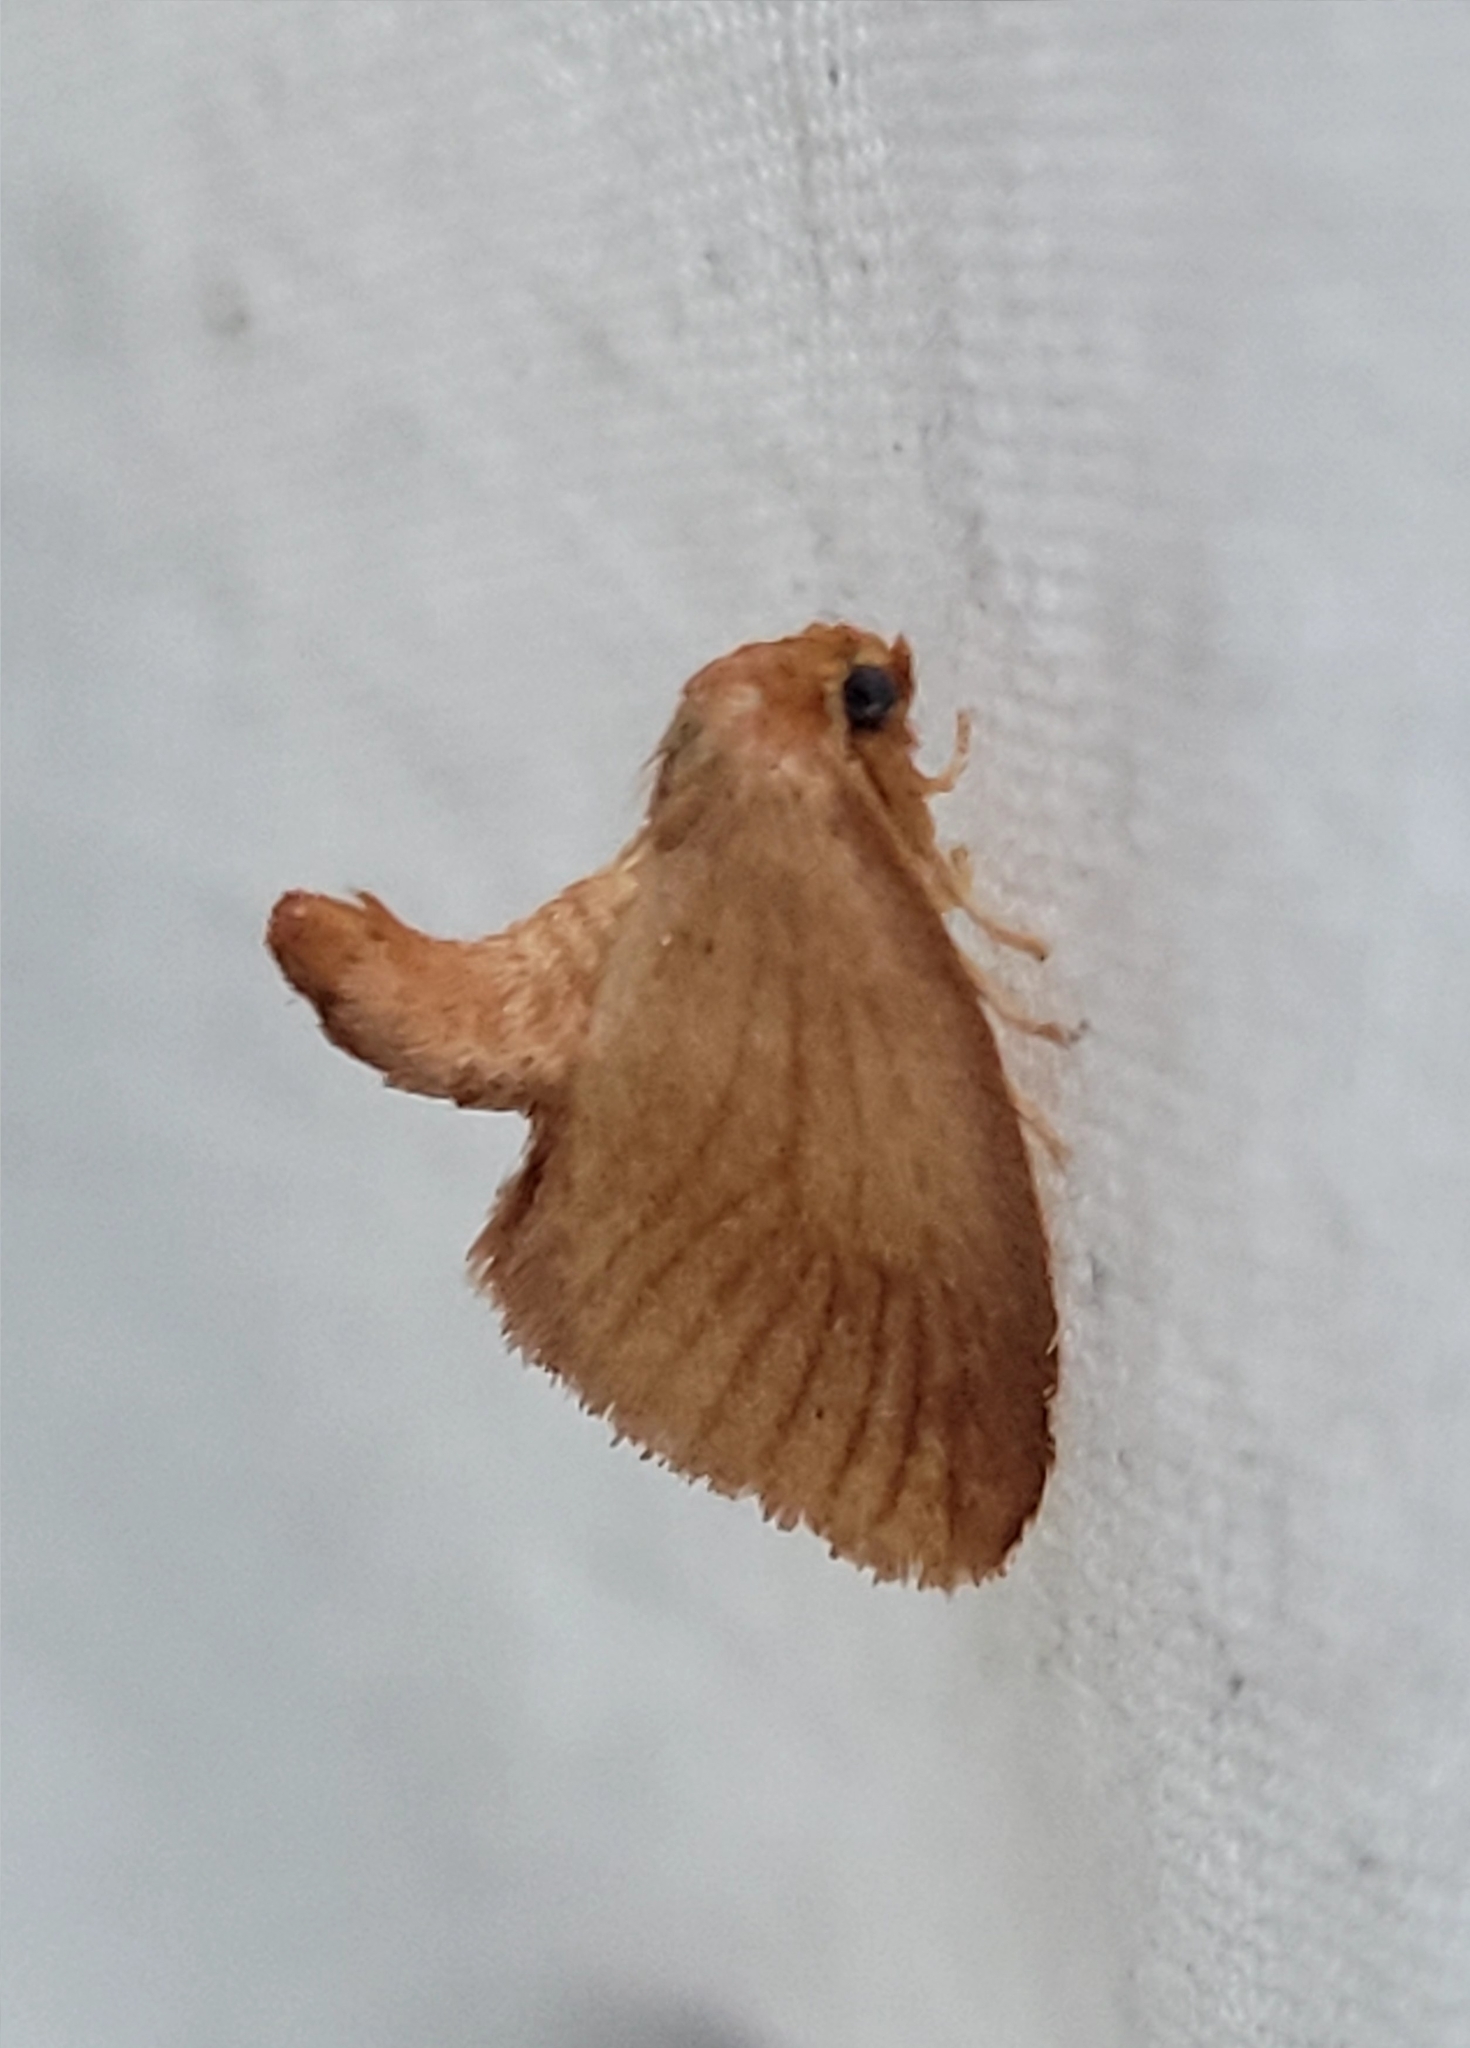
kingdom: Animalia
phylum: Arthropoda
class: Insecta
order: Lepidoptera
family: Limacodidae
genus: Tortricidia
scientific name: Tortricidia testacea
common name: Early button slug moth
